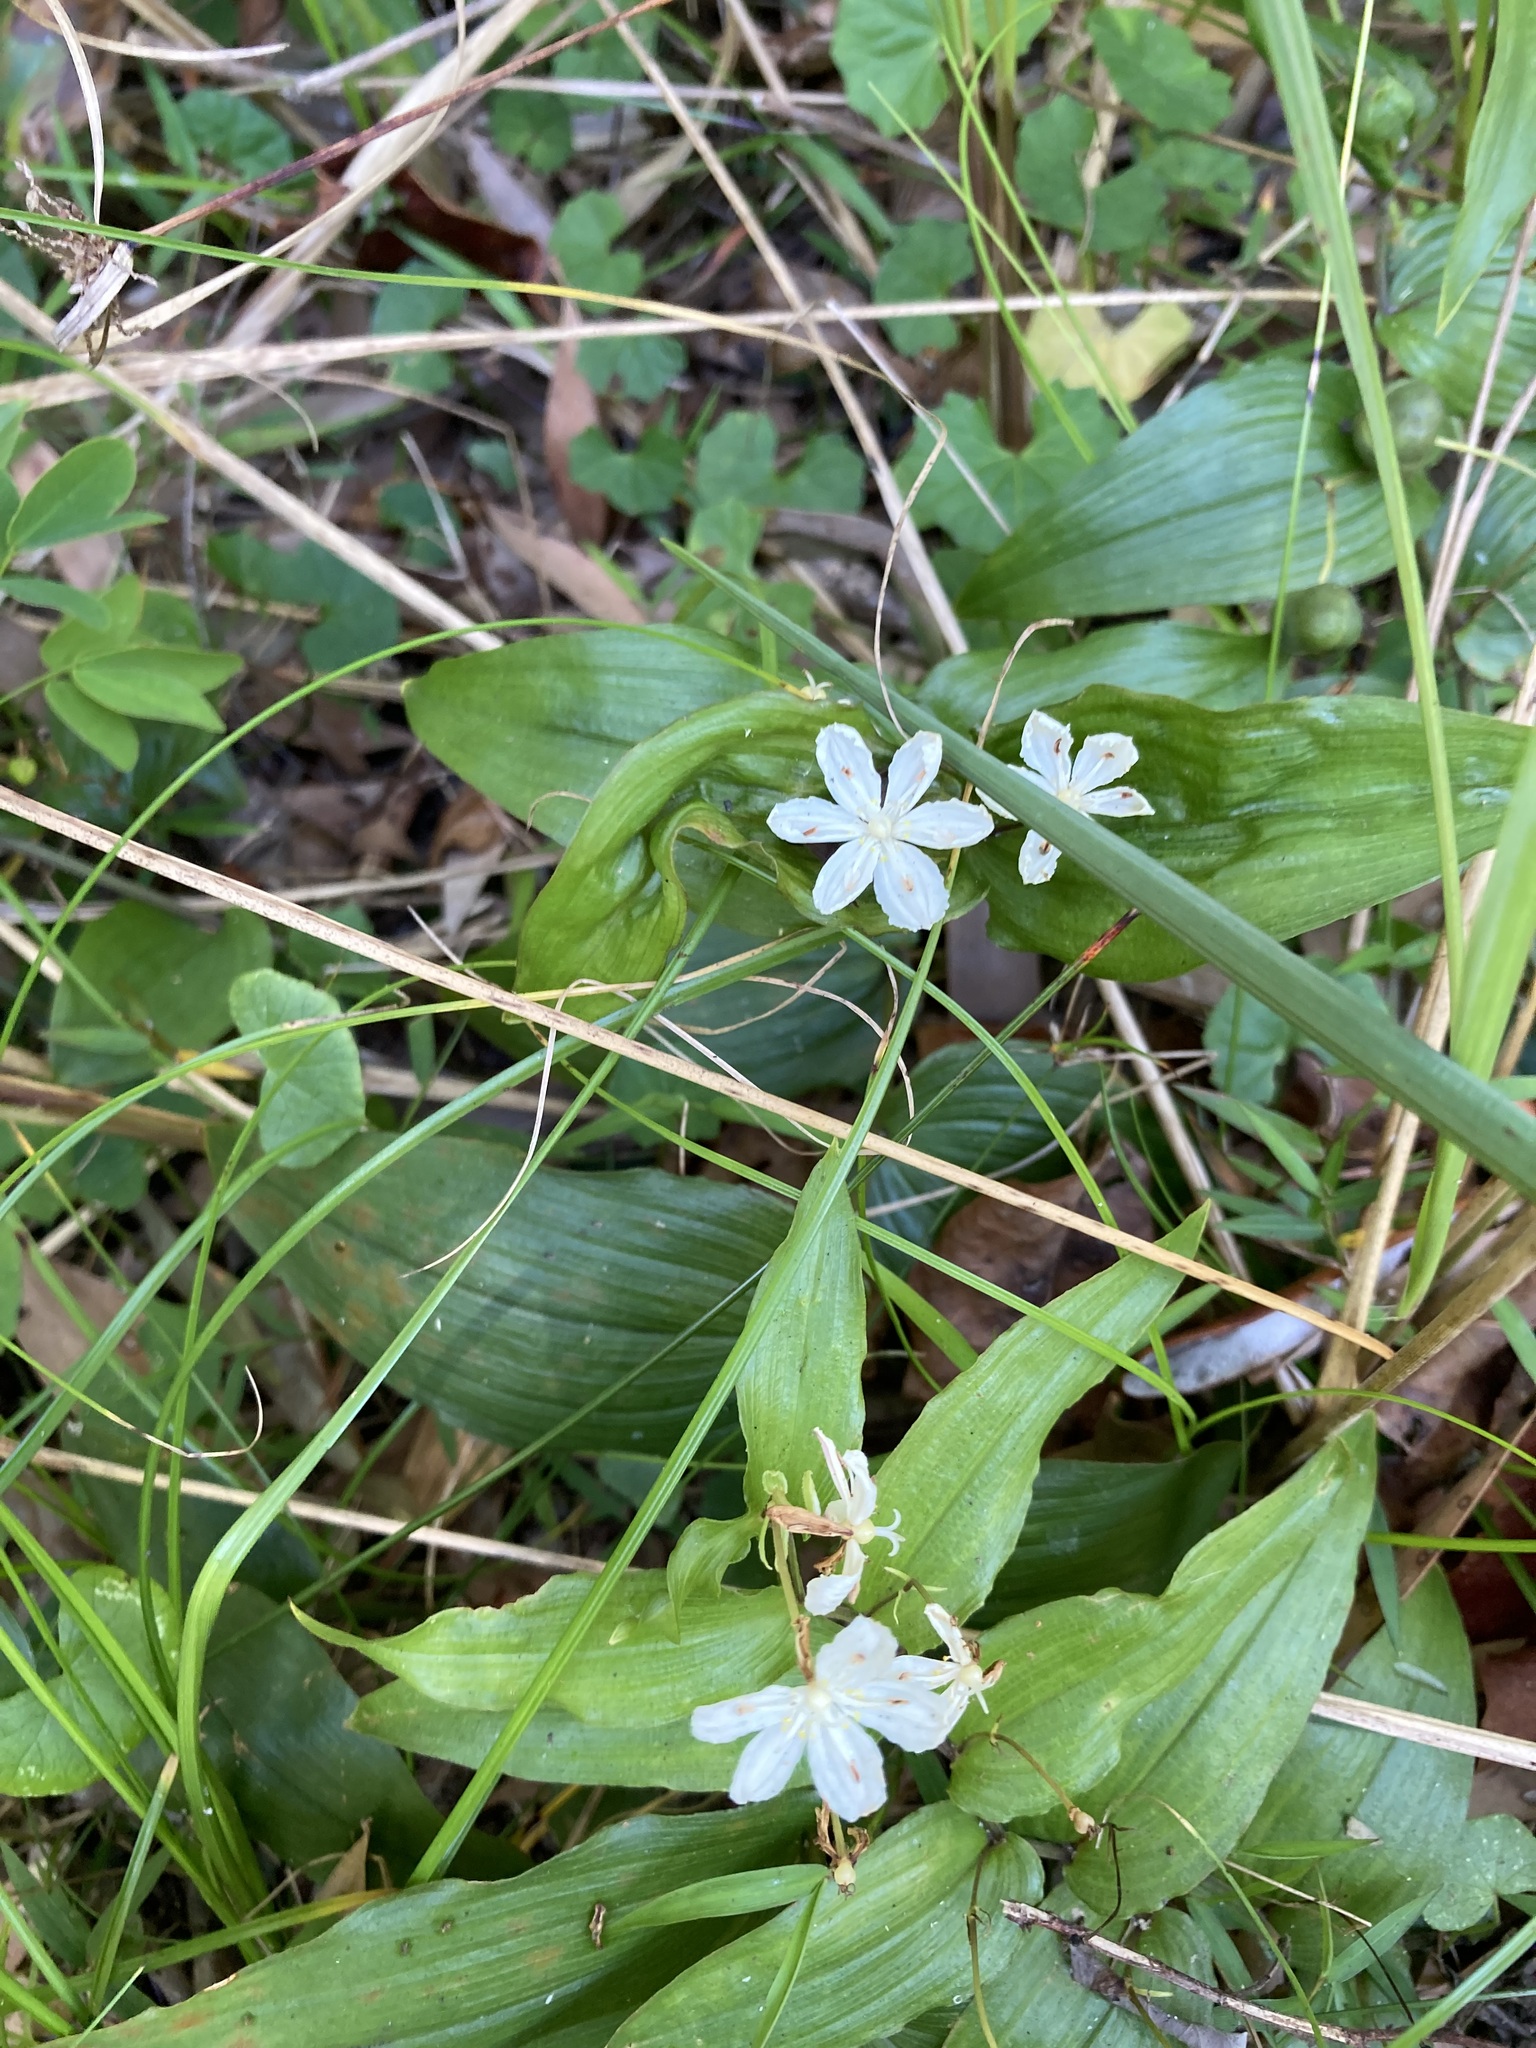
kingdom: Plantae
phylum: Tracheophyta
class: Liliopsida
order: Liliales
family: Colchicaceae
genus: Tripladenia
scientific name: Tripladenia cunninghamii
